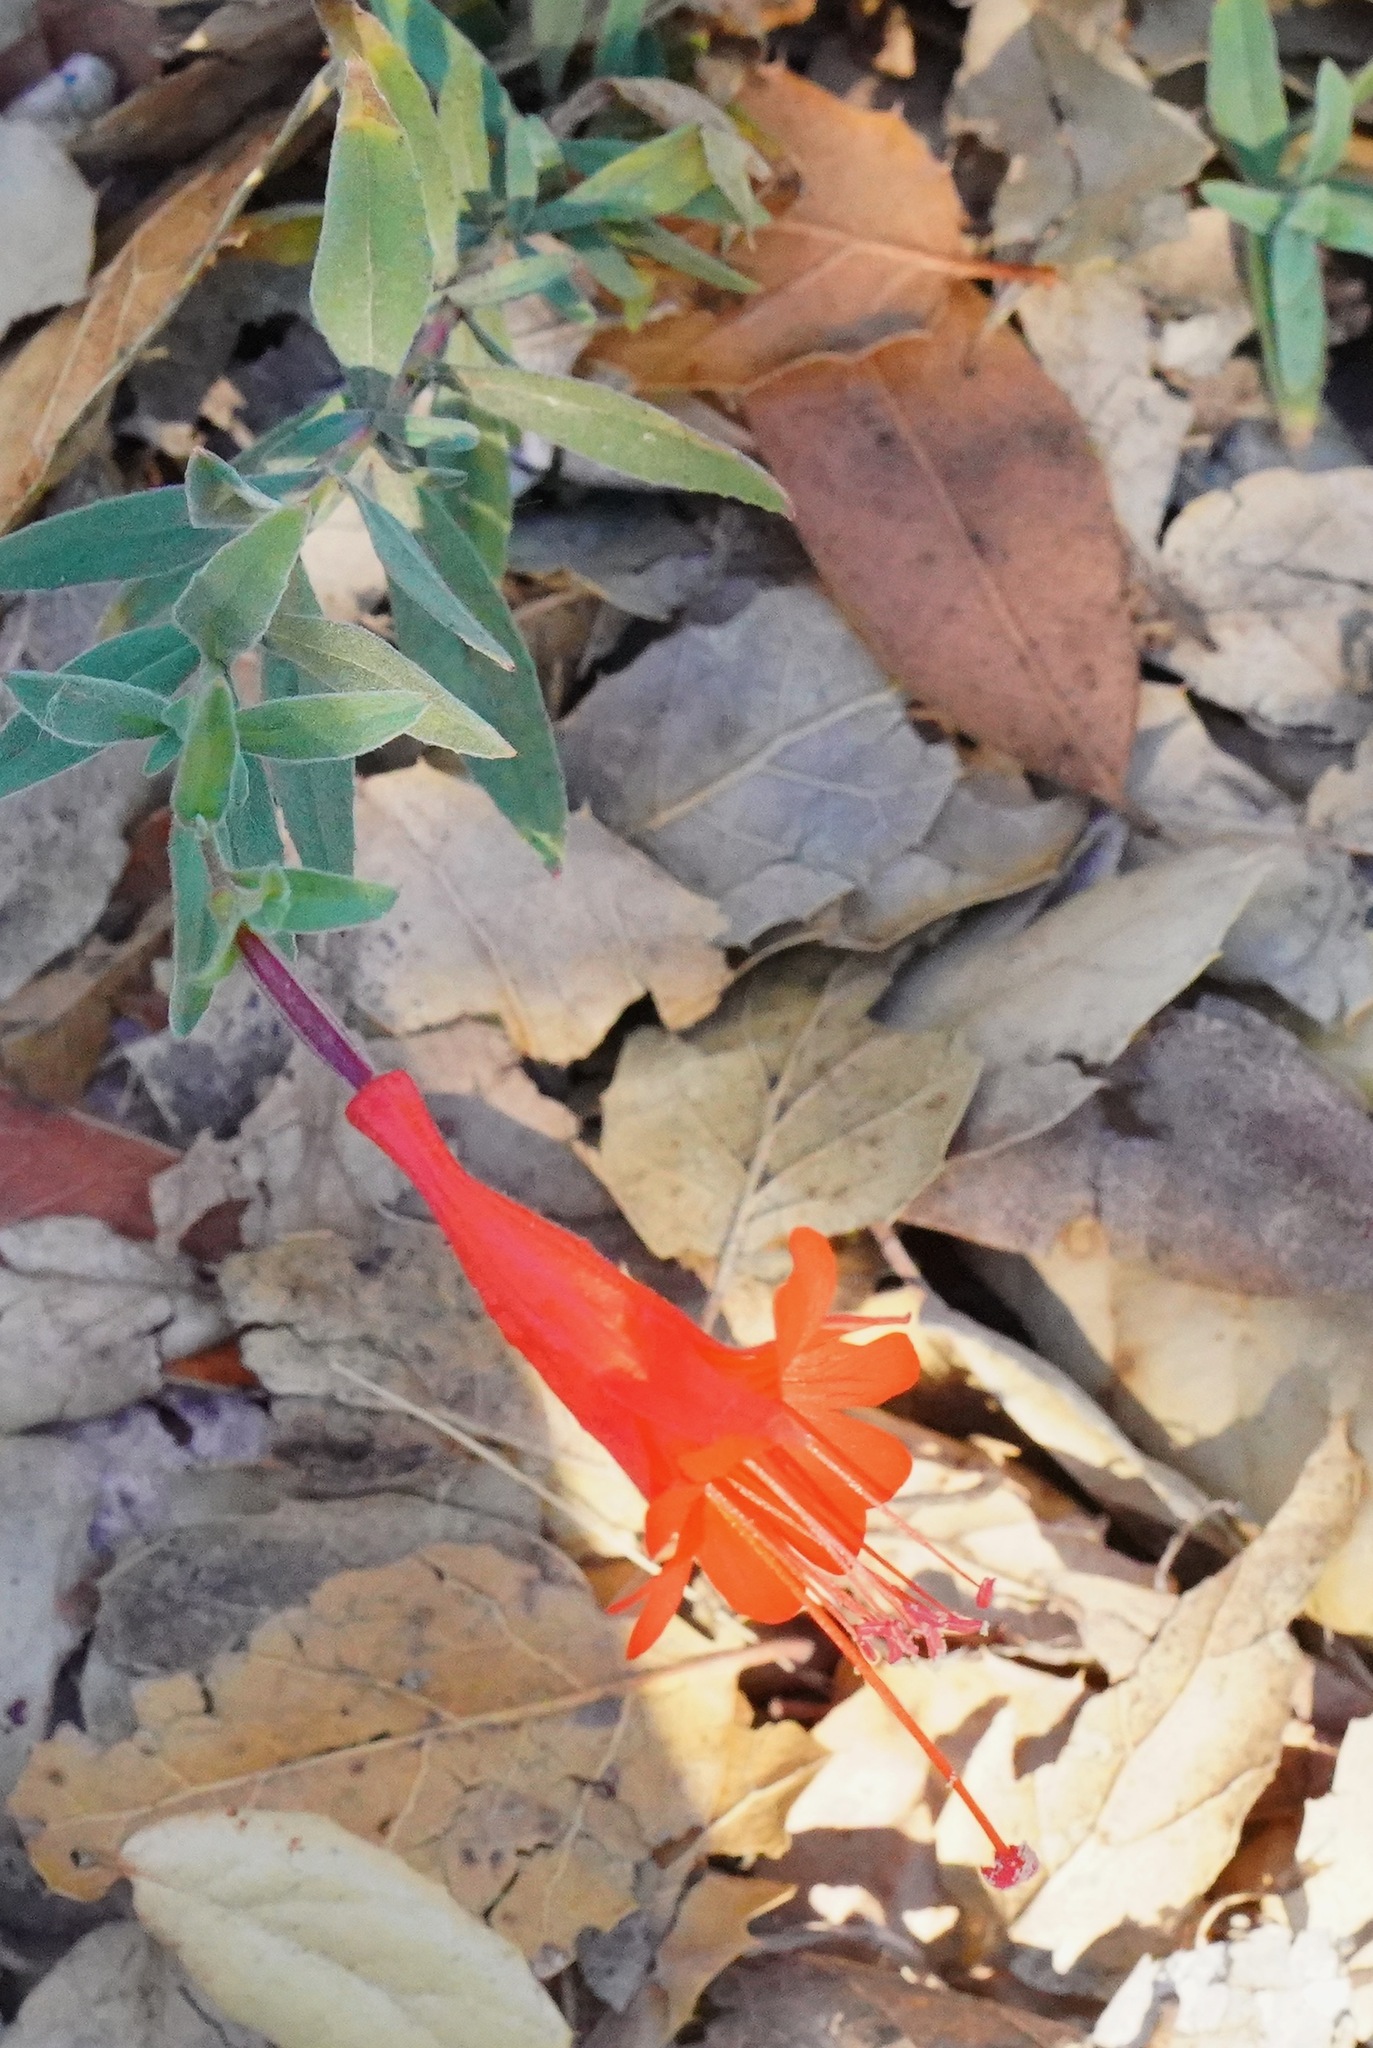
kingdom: Plantae
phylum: Tracheophyta
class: Magnoliopsida
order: Myrtales
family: Onagraceae
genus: Epilobium
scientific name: Epilobium canum
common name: California-fuchsia
